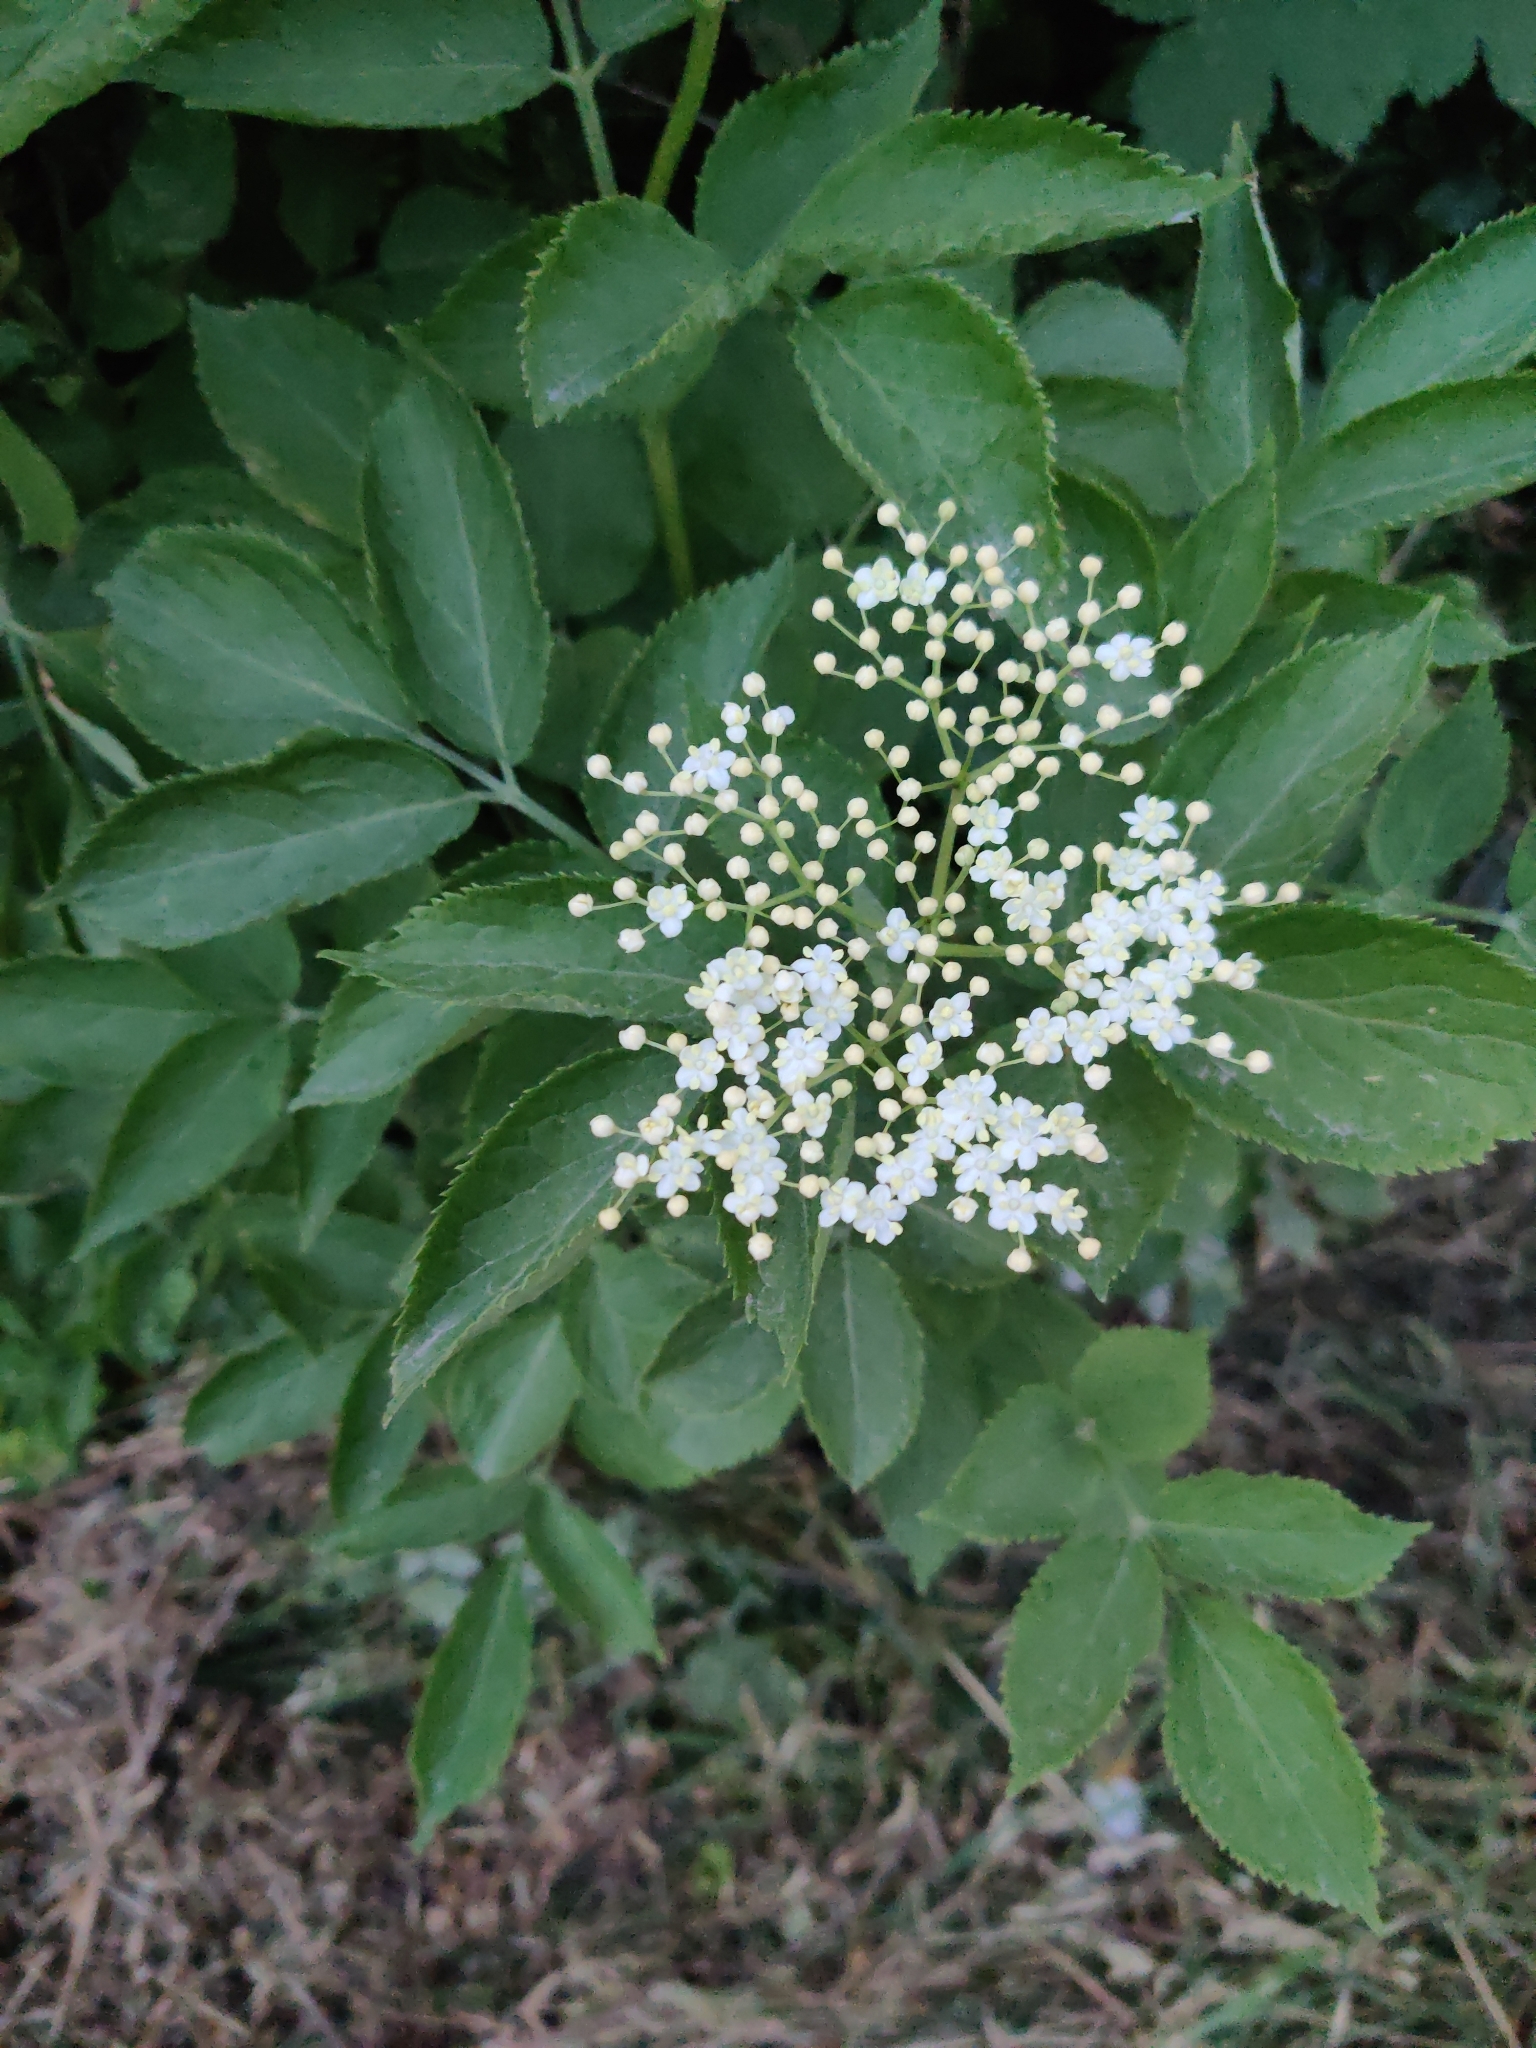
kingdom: Plantae
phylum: Tracheophyta
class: Magnoliopsida
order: Dipsacales
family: Viburnaceae
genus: Sambucus
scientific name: Sambucus nigra
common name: Elder
